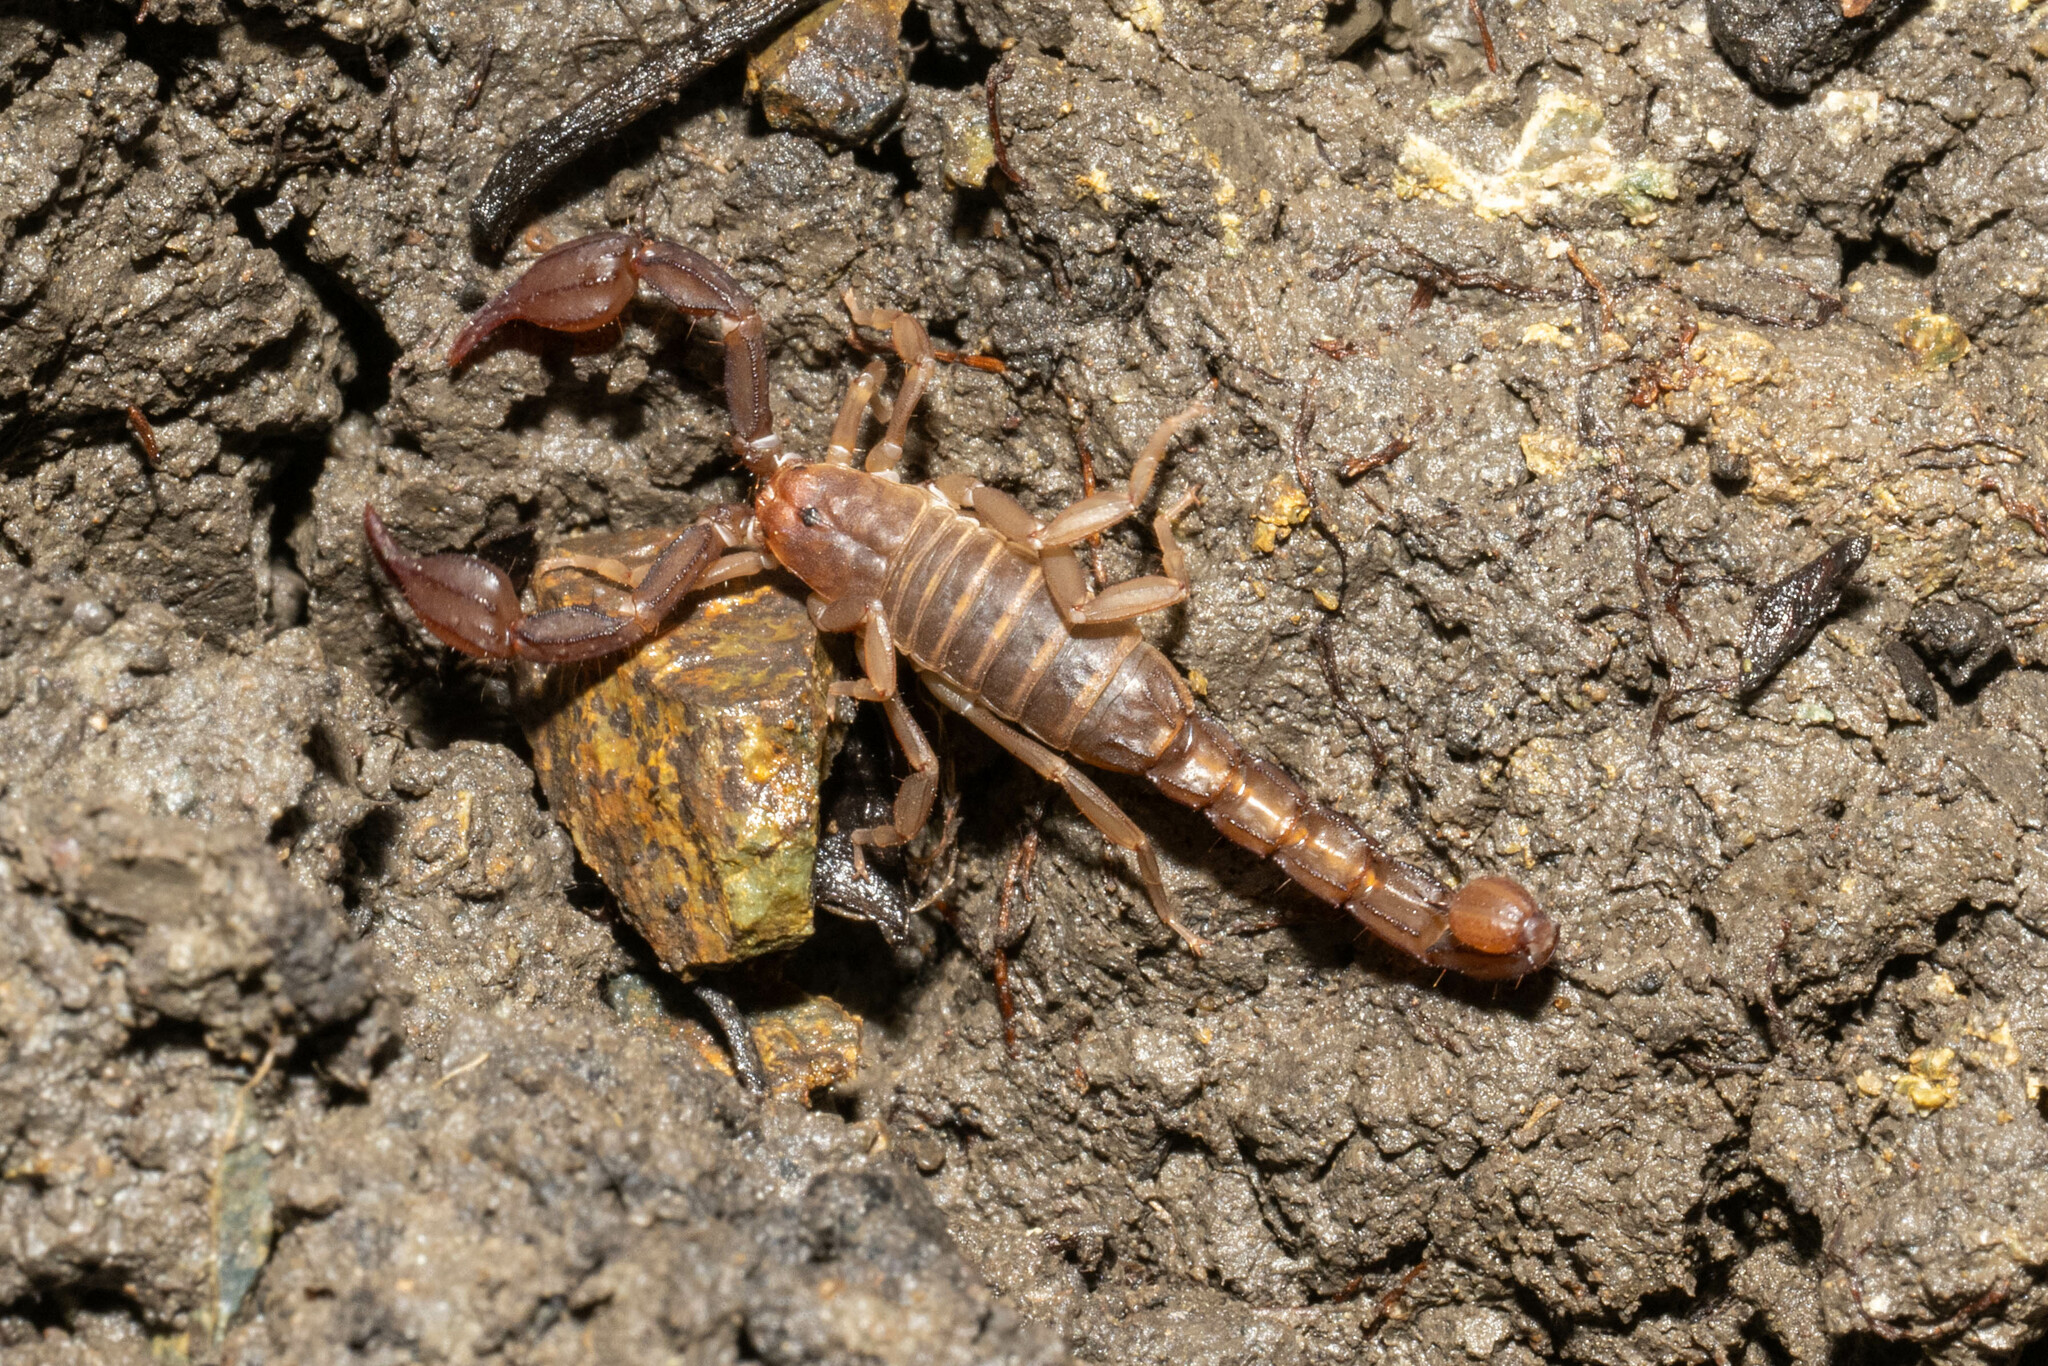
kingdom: Animalia
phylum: Arthropoda
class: Arachnida
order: Scorpiones
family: Vaejovidae
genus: Graemeloweus
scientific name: Graemeloweus glimmei
